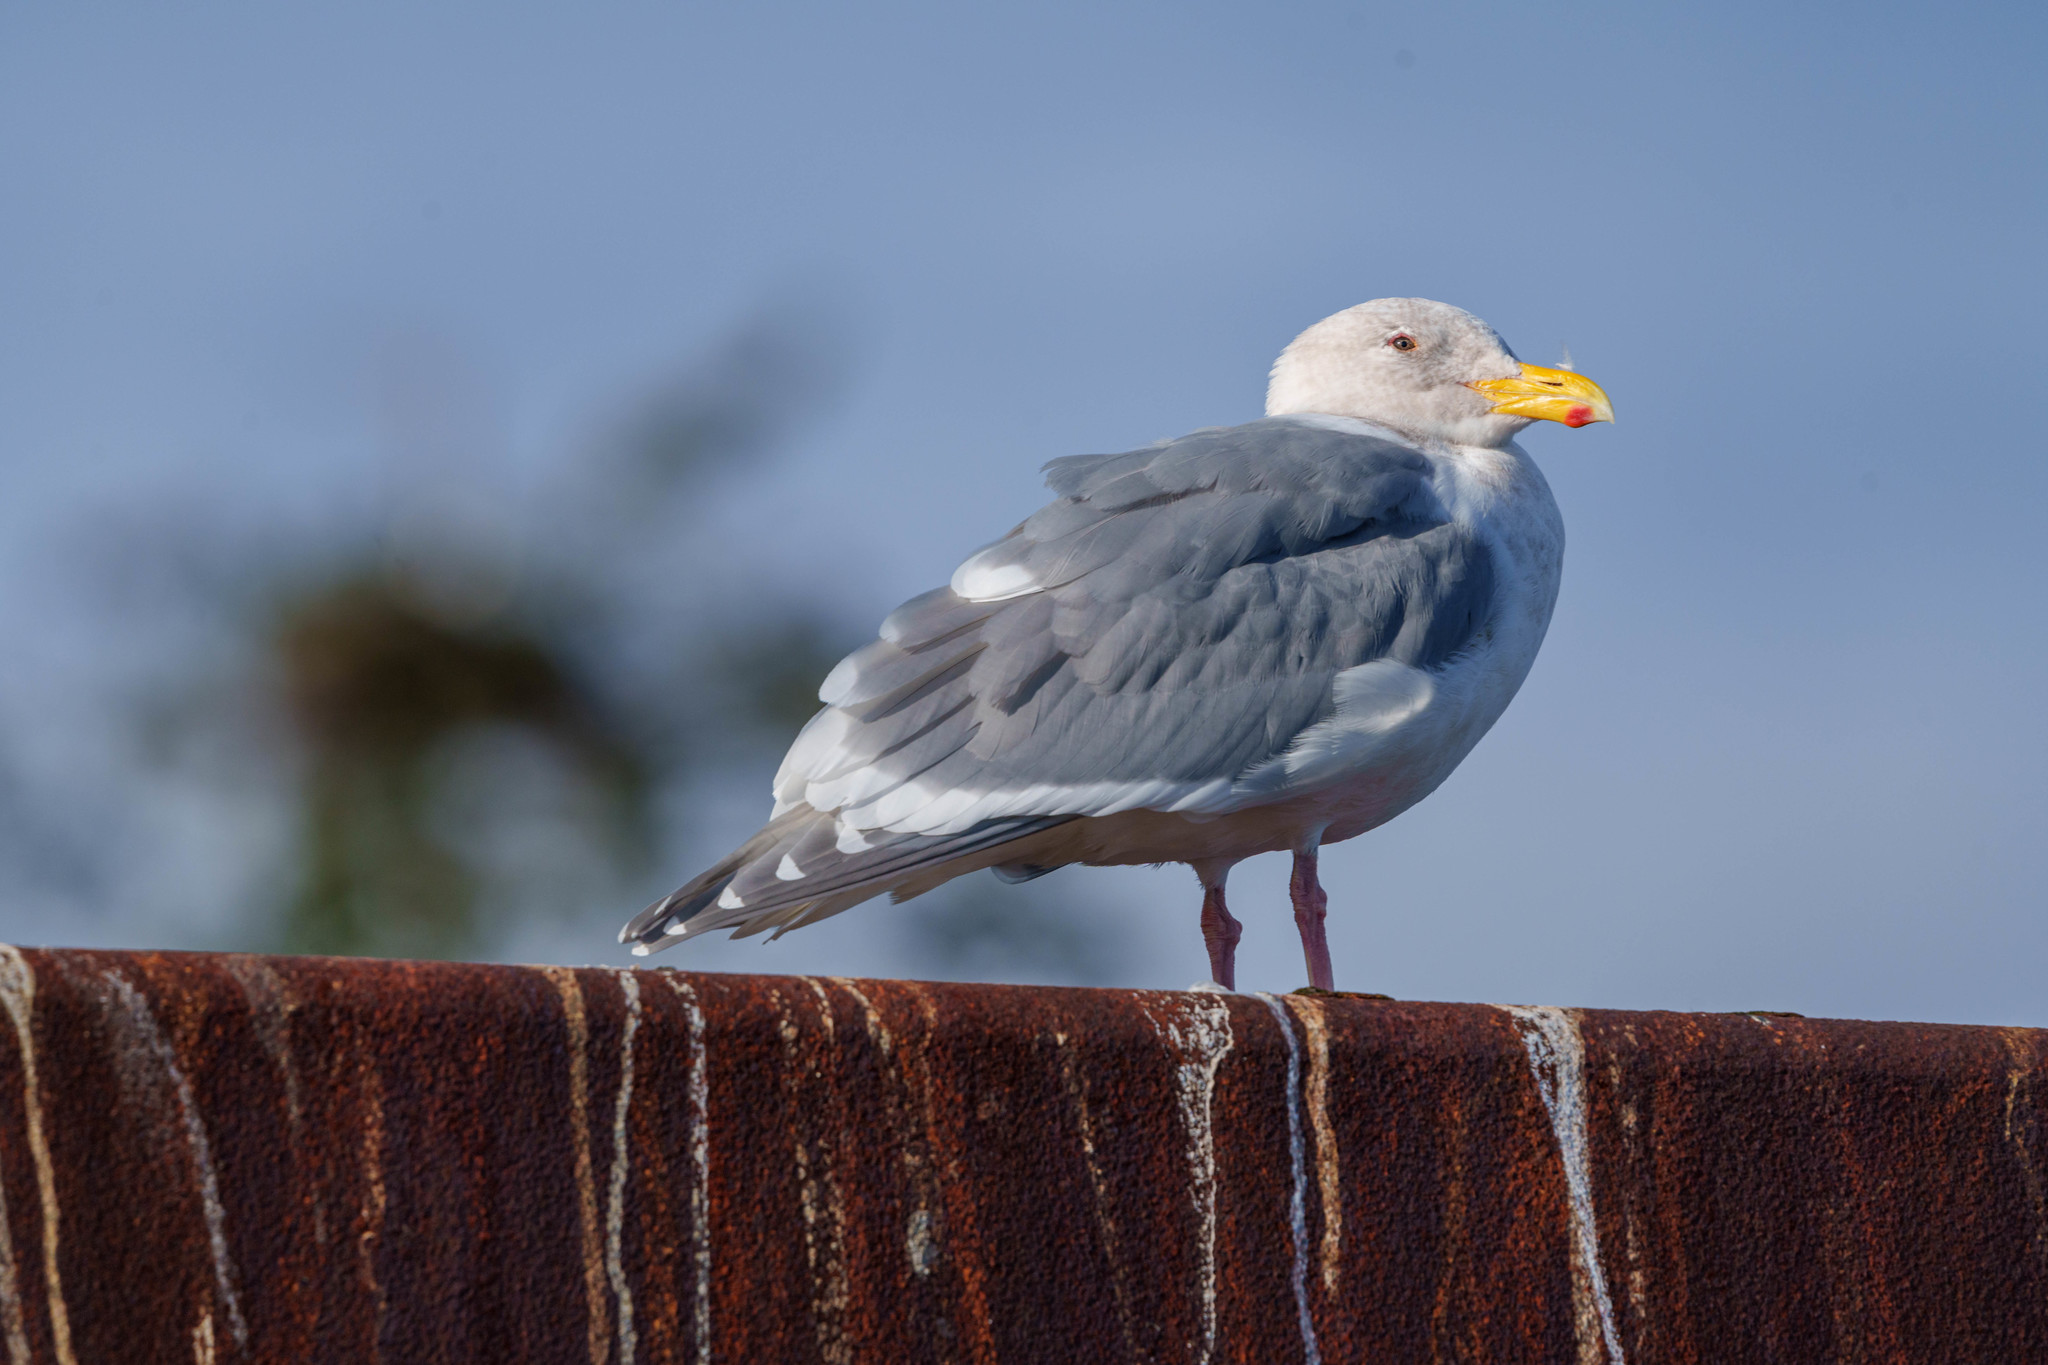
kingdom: Animalia
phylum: Chordata
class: Aves
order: Charadriiformes
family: Laridae
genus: Larus
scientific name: Larus glaucescens
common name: Glaucous-winged gull
